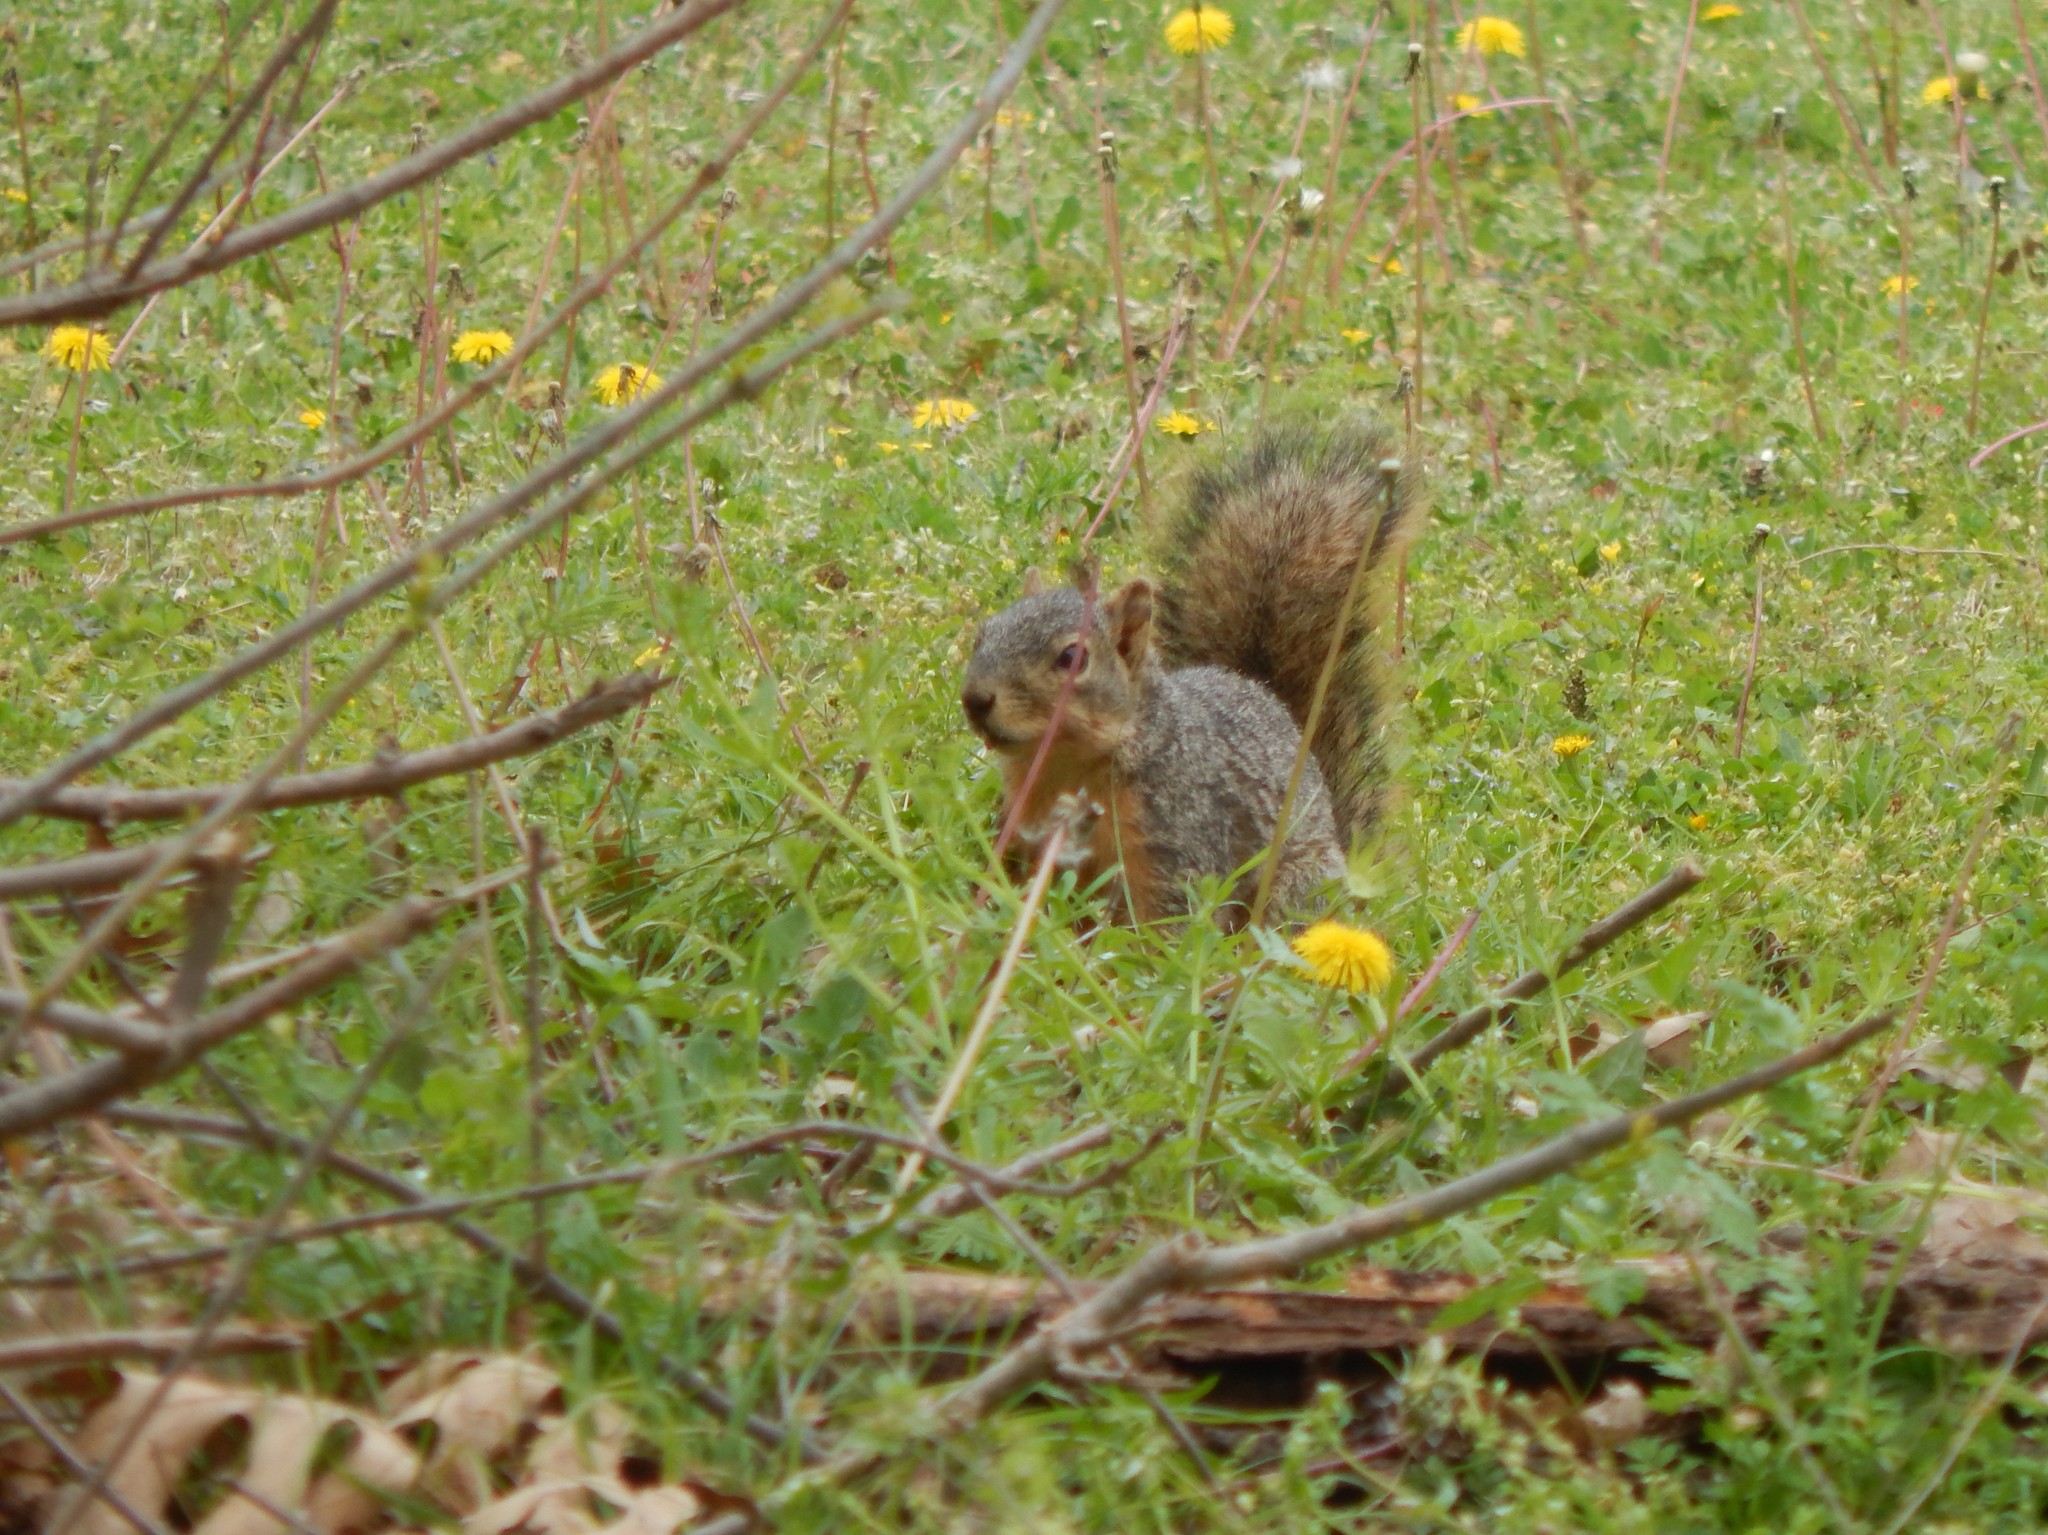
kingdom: Animalia
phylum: Chordata
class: Mammalia
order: Rodentia
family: Sciuridae
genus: Sciurus
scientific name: Sciurus niger
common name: Fox squirrel
